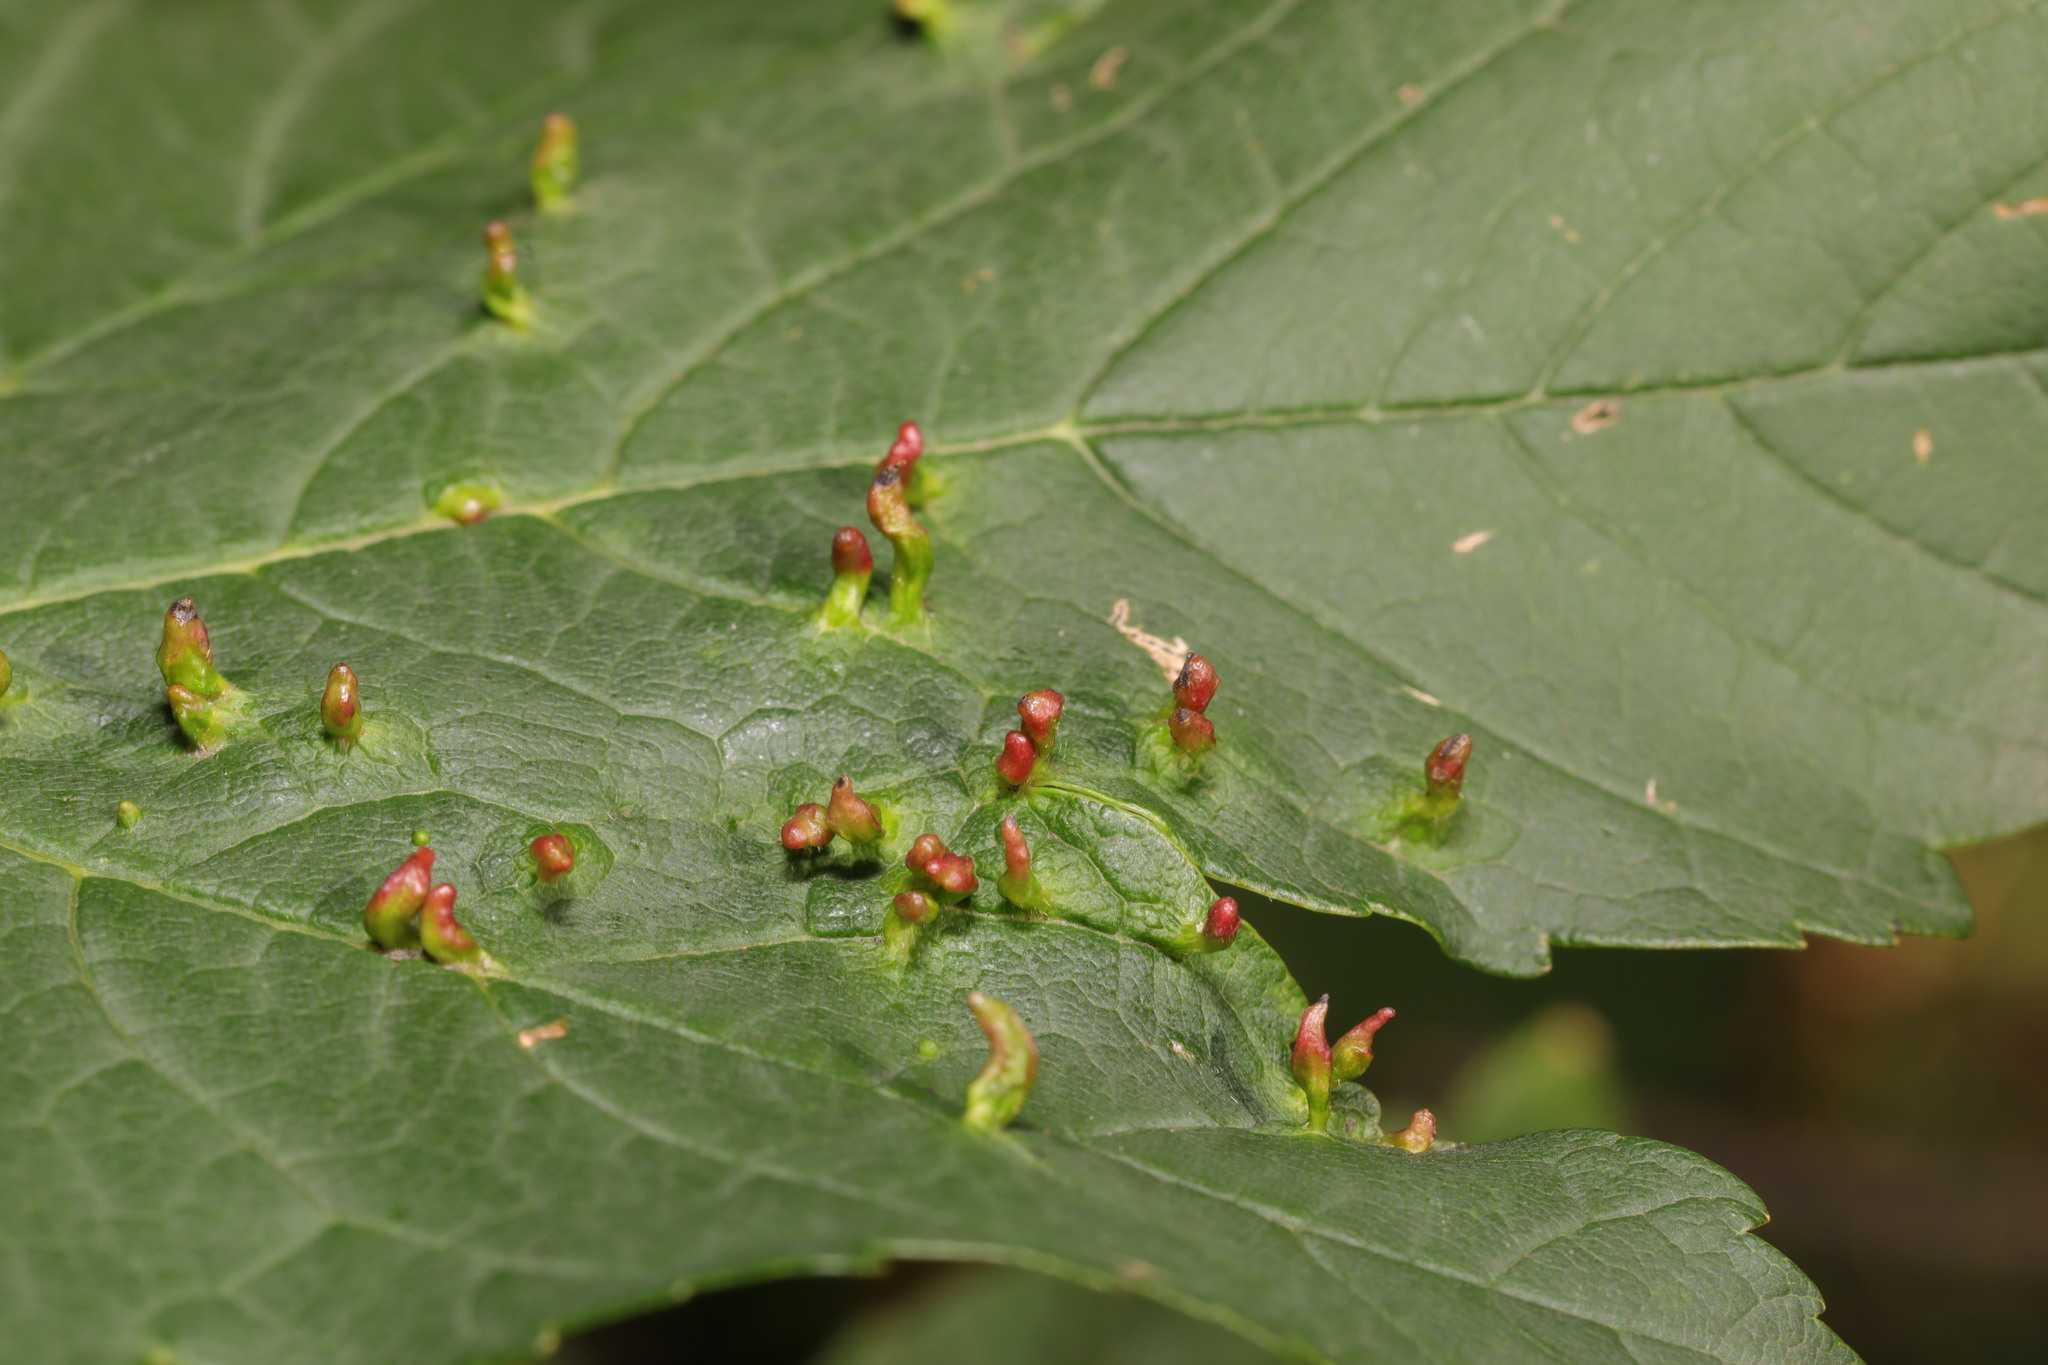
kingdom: Animalia
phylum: Arthropoda
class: Arachnida
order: Trombidiformes
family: Eriophyidae
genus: Aceria
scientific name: Aceria macrorhynchus
